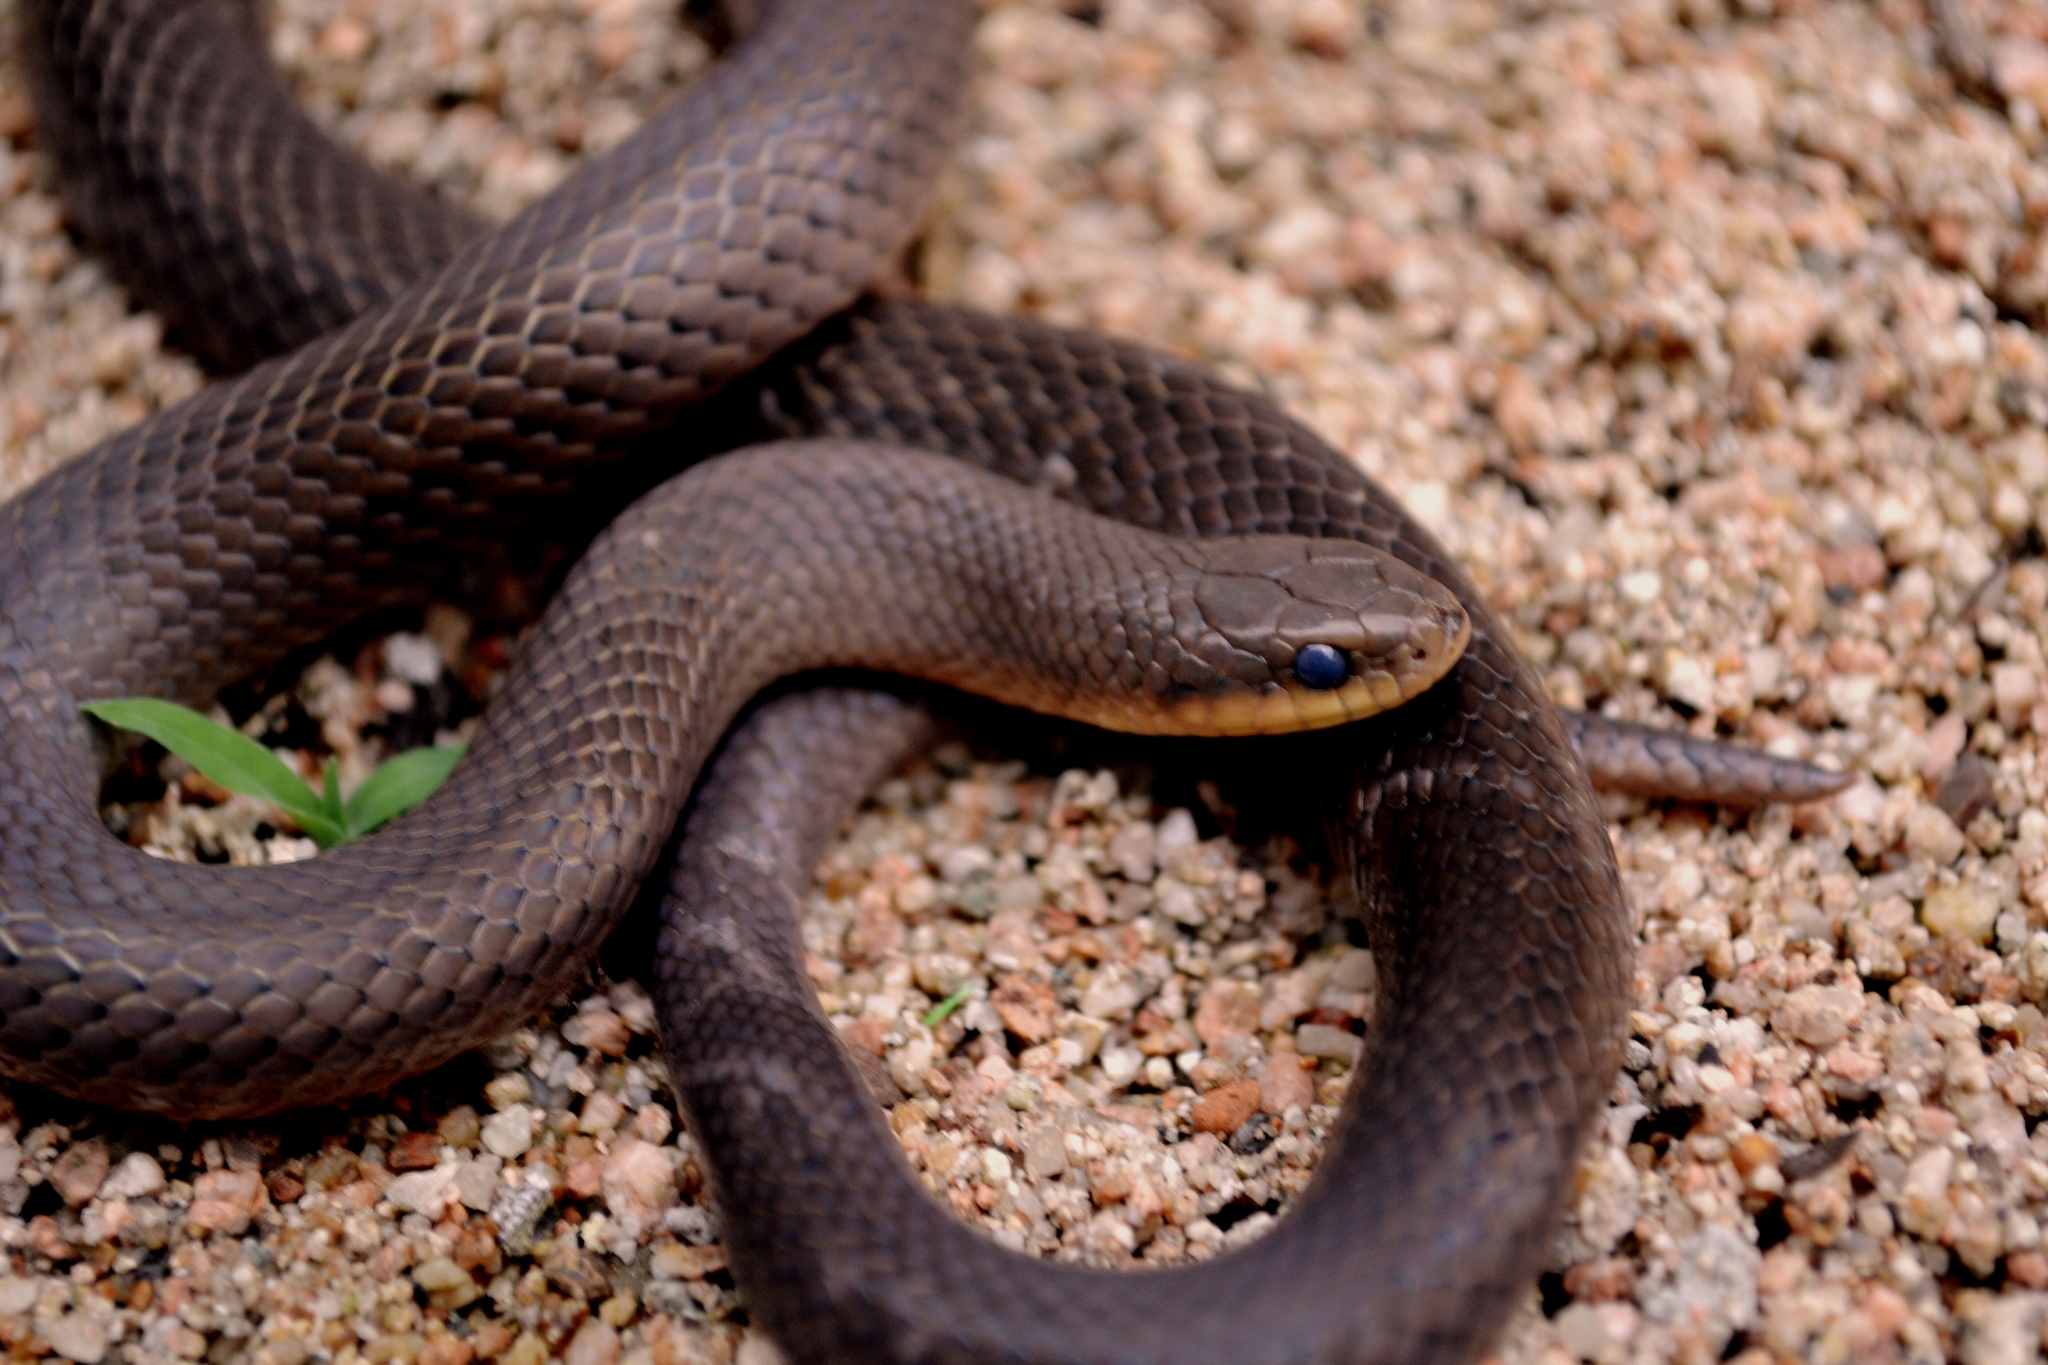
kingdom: Animalia
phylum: Chordata
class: Squamata
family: Colubridae
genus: Stenorrhina
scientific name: Stenorrhina freminvillei
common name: Blood snake
